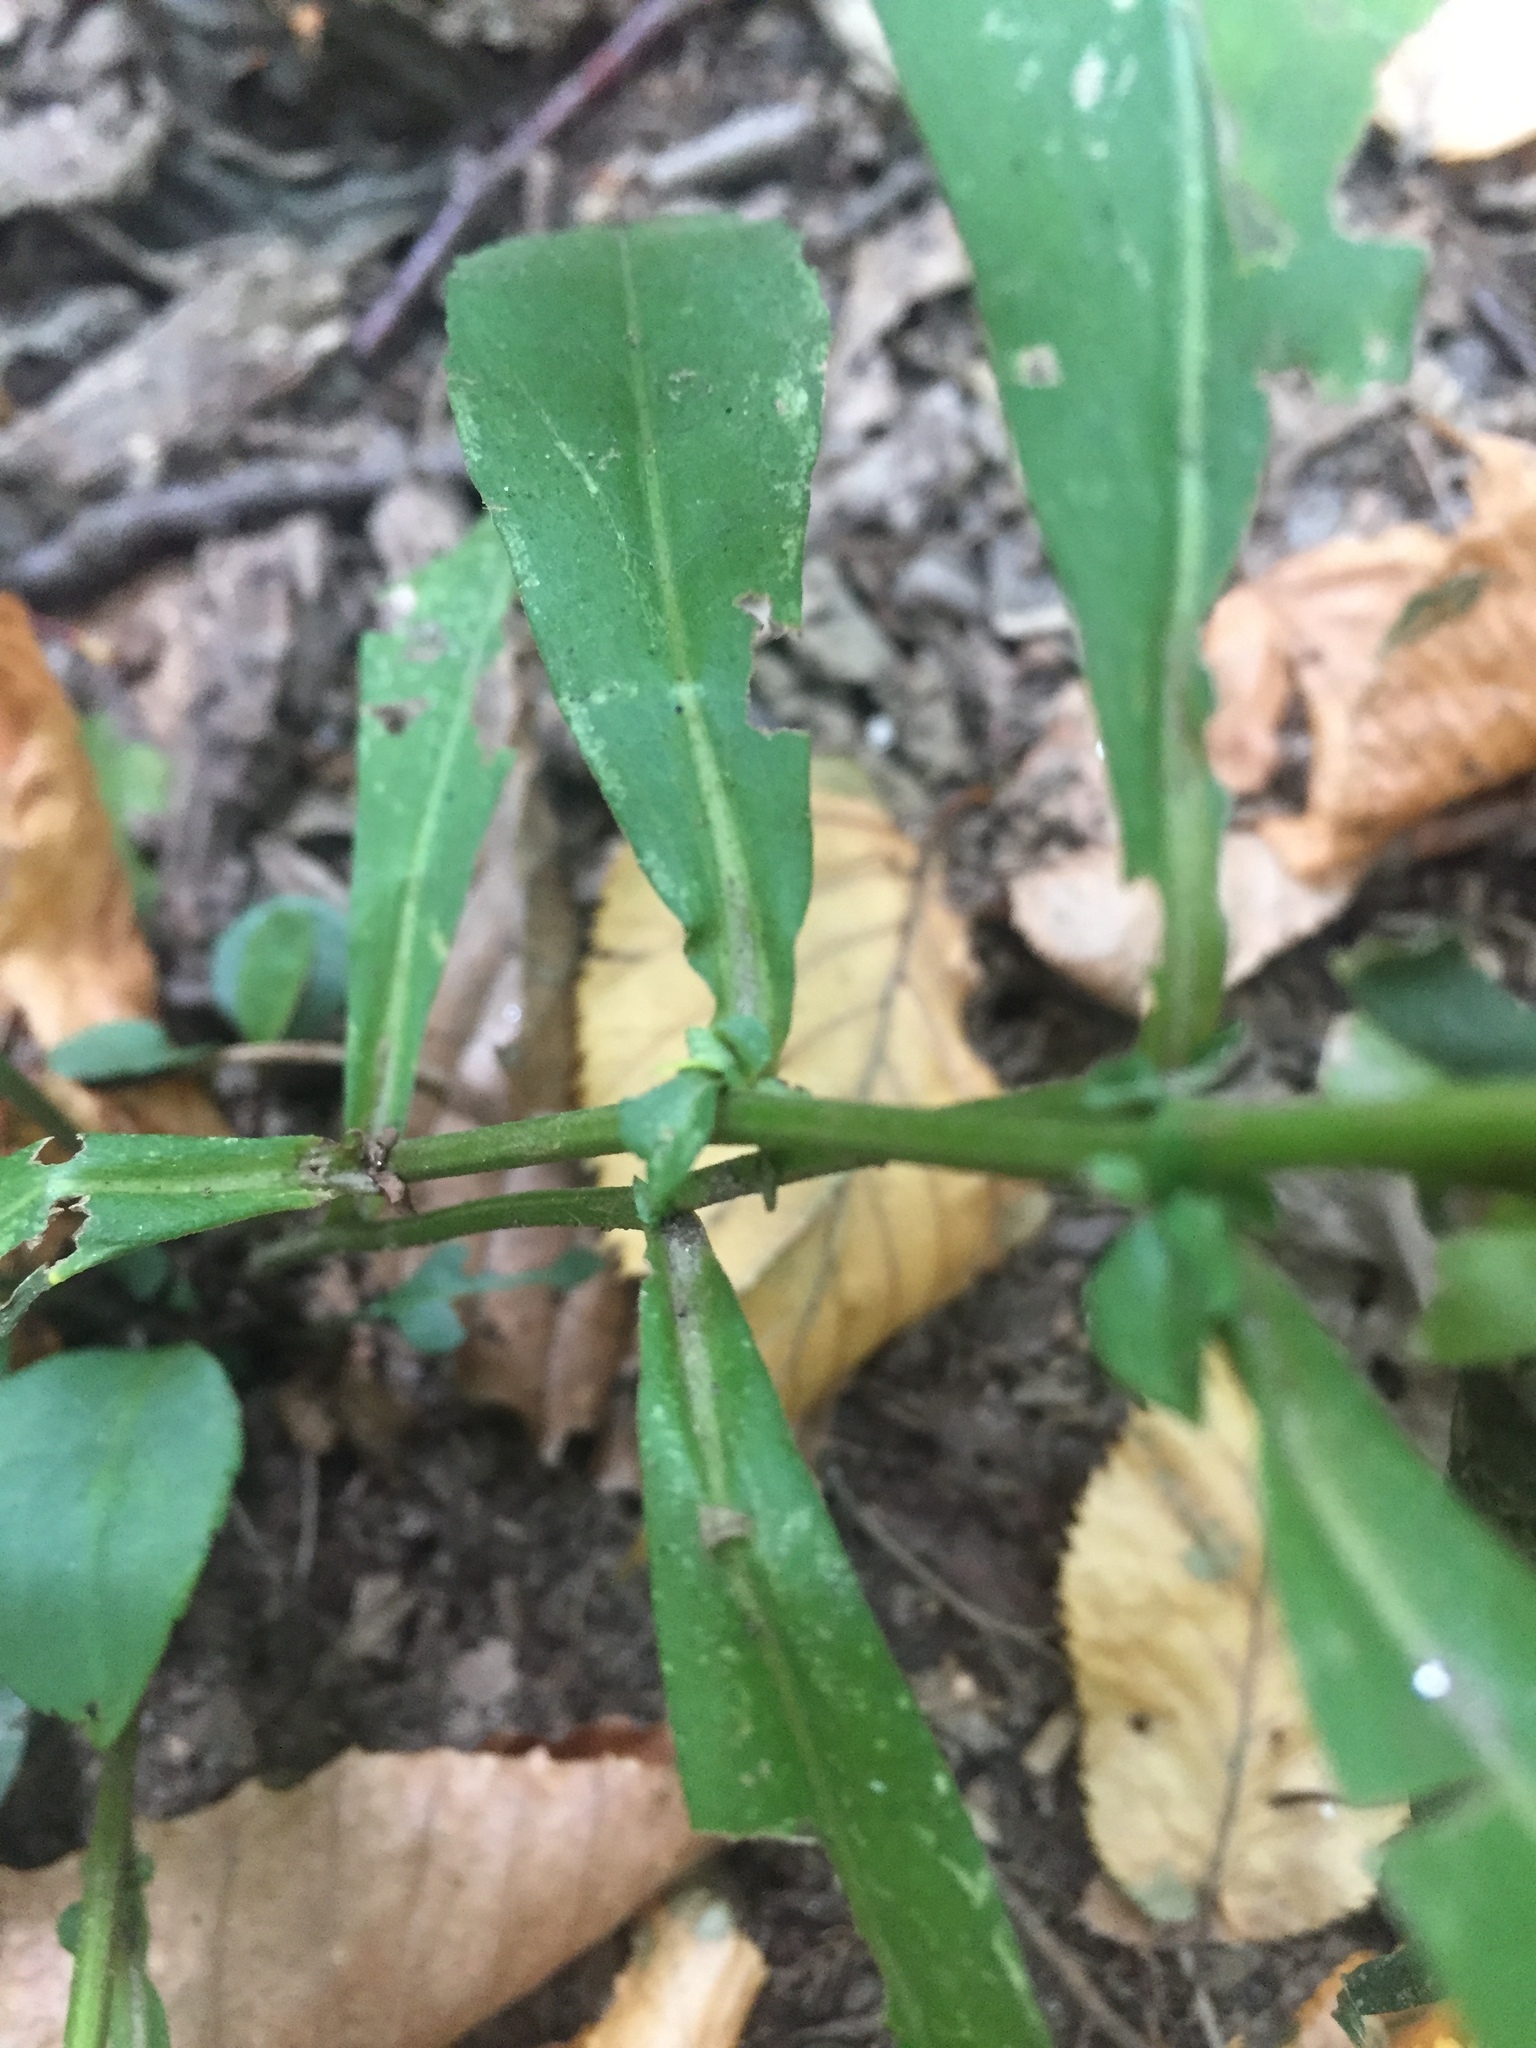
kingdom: Plantae
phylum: Tracheophyta
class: Magnoliopsida
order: Asterales
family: Asteraceae
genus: Symphyotrichum
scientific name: Symphyotrichum lateriflorum
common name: Calico aster
